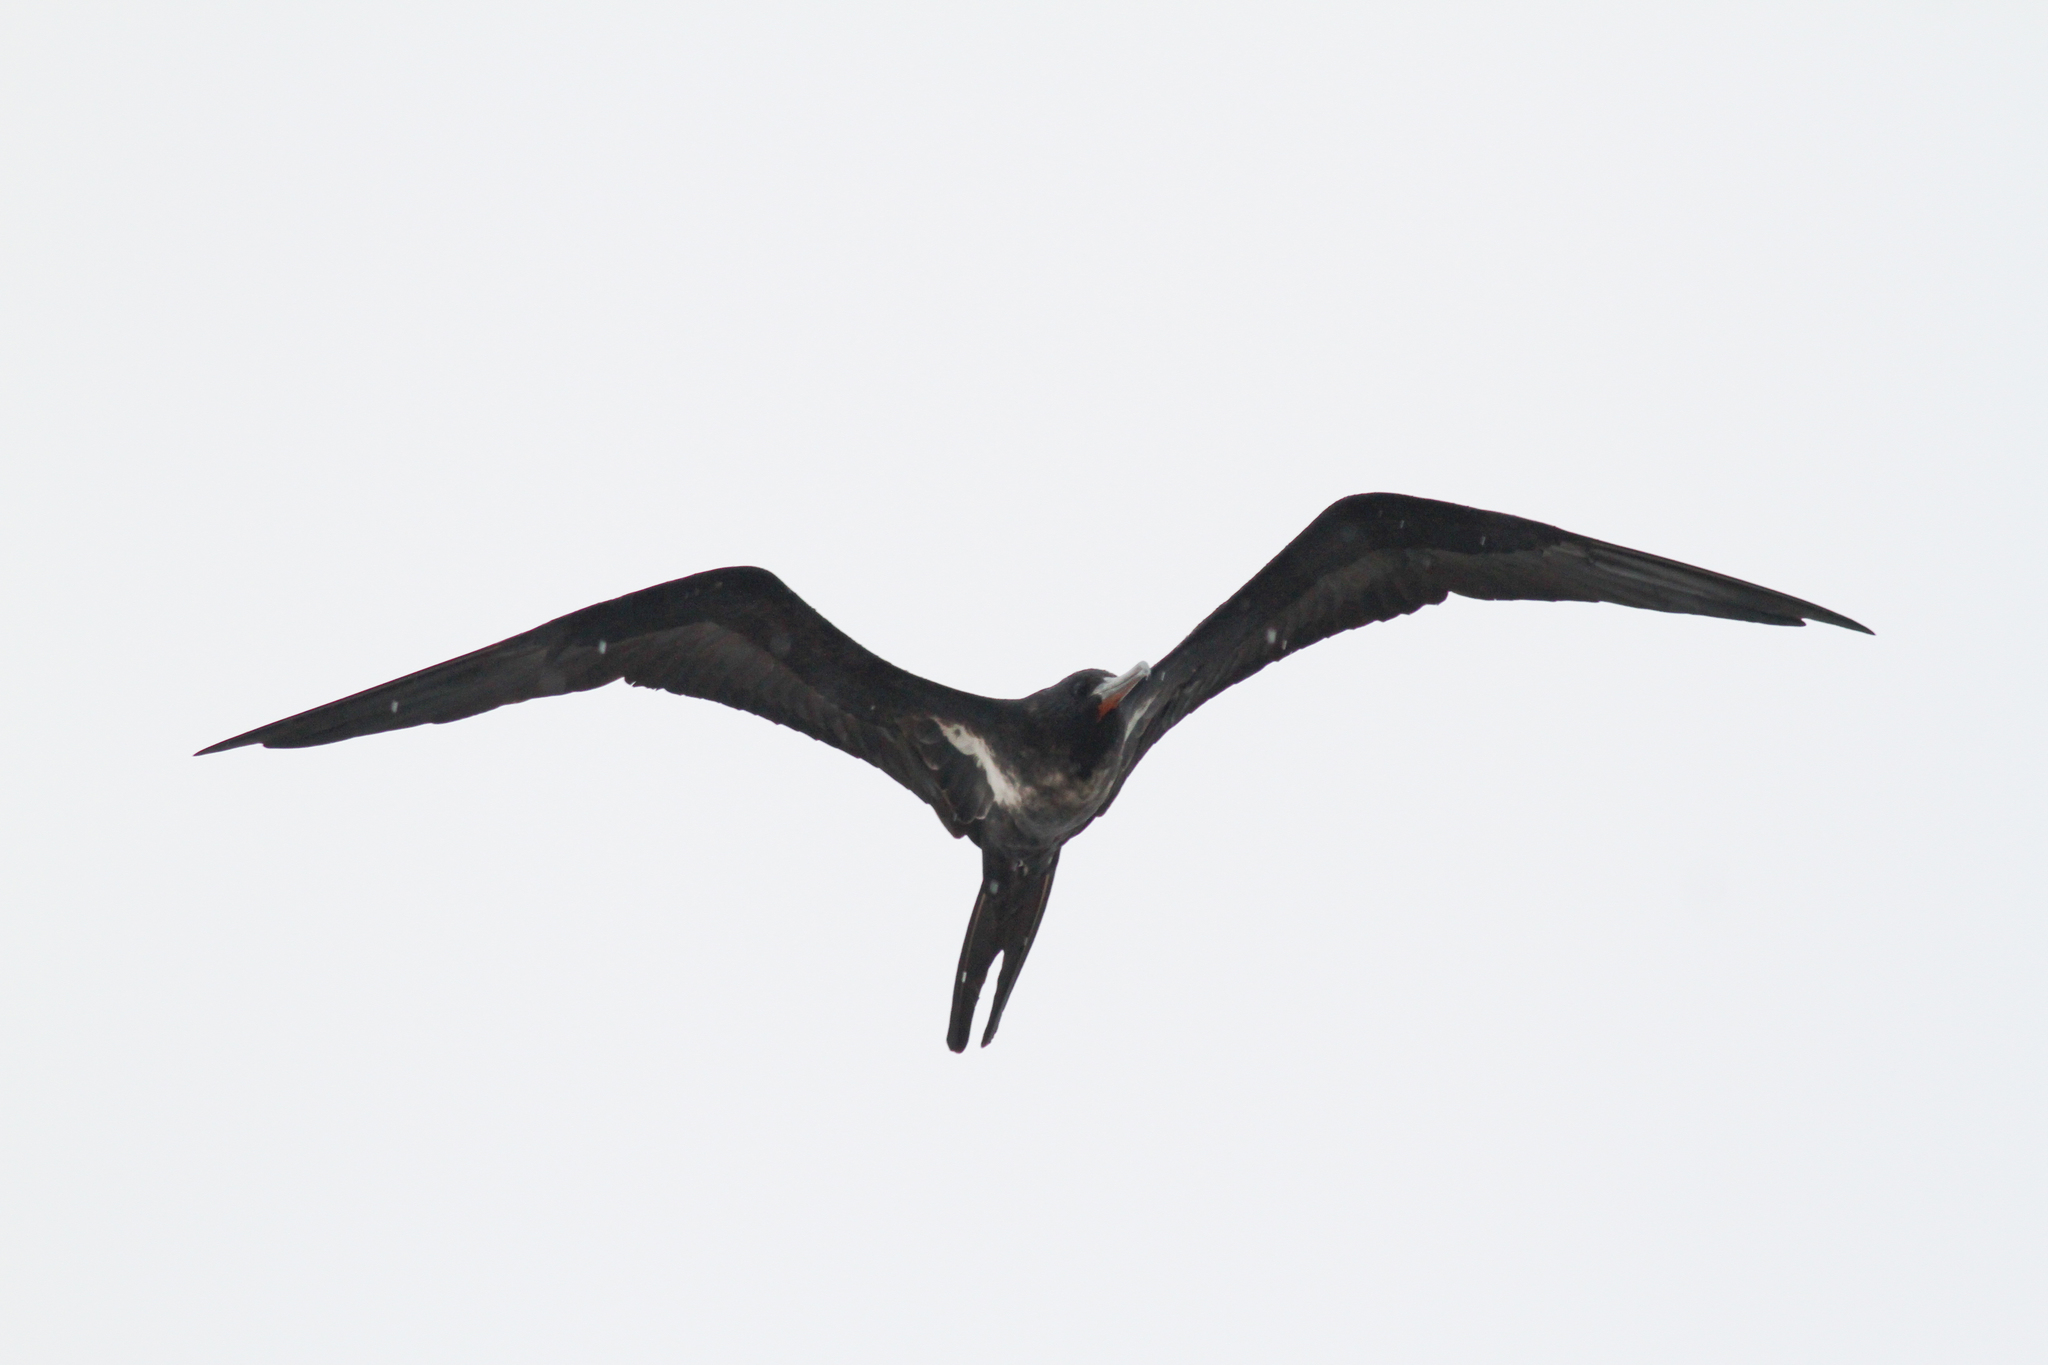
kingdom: Animalia
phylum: Chordata
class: Aves
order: Suliformes
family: Fregatidae
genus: Fregata
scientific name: Fregata ariel
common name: Lesser frigatebird
